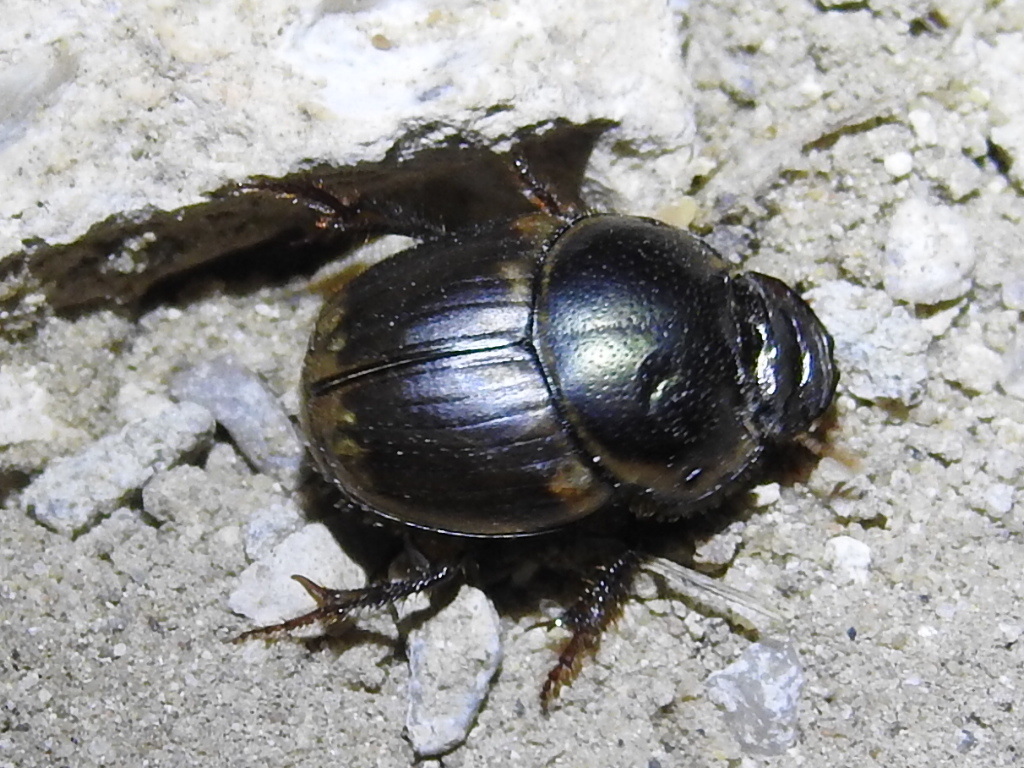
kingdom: Animalia
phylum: Arthropoda
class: Insecta
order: Coleoptera
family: Scarabaeidae
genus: Digitonthophagus
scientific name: Digitonthophagus gazella
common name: Brown dung beetle
